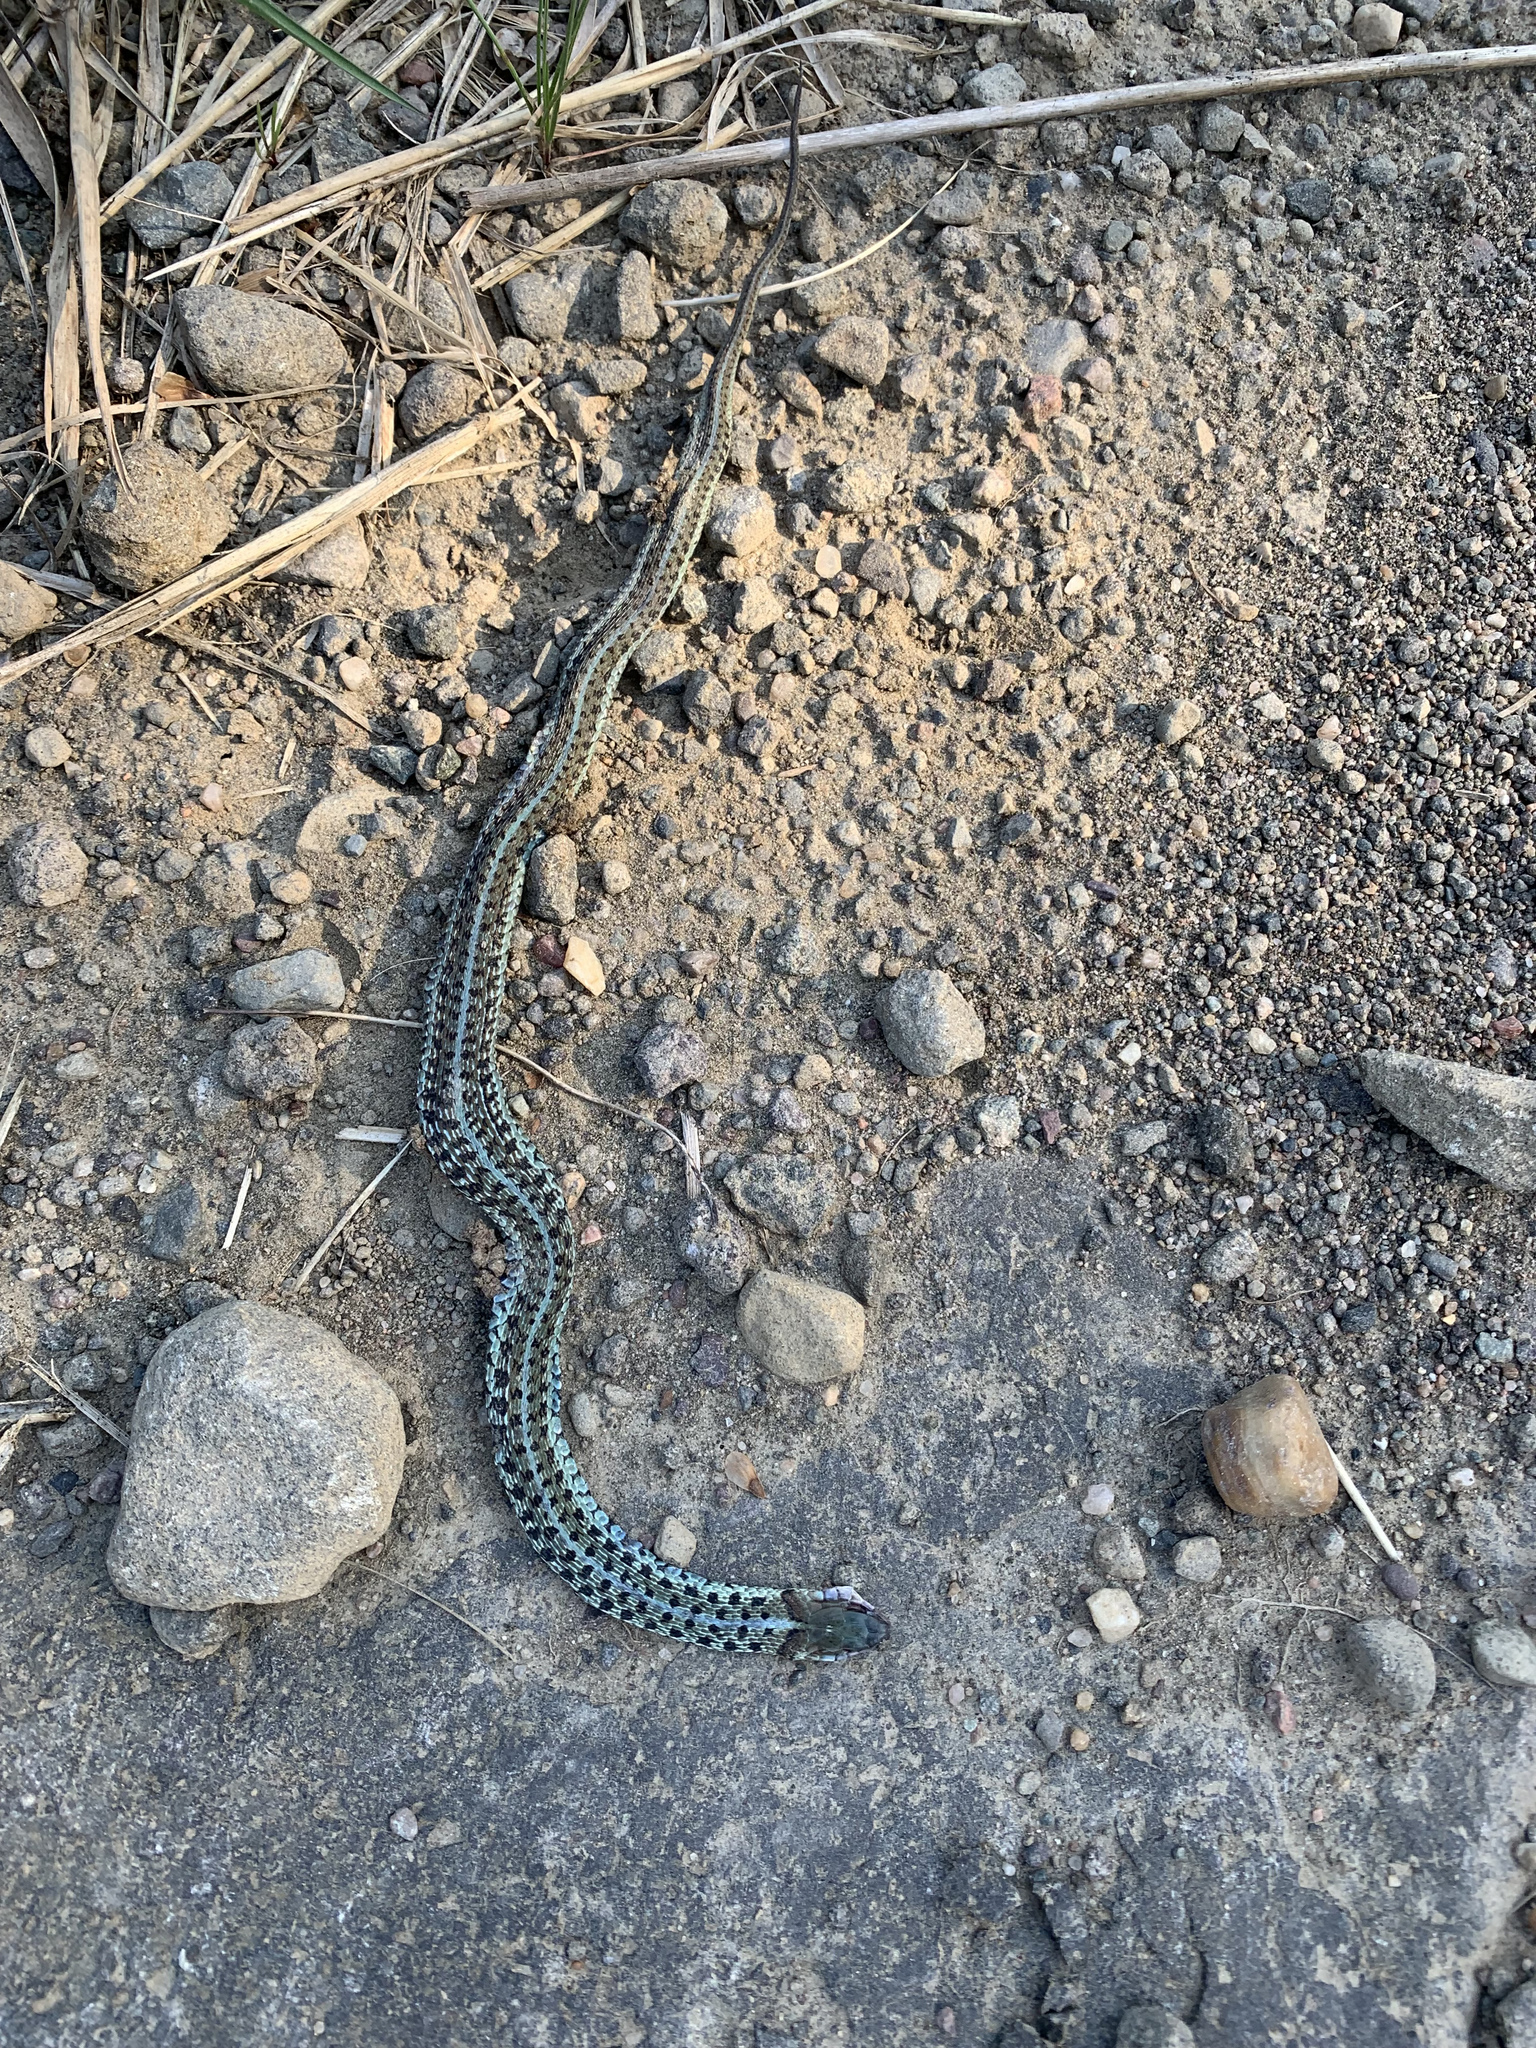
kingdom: Animalia
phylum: Chordata
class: Squamata
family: Colubridae
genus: Thamnophis
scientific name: Thamnophis sirtalis
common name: Common garter snake
